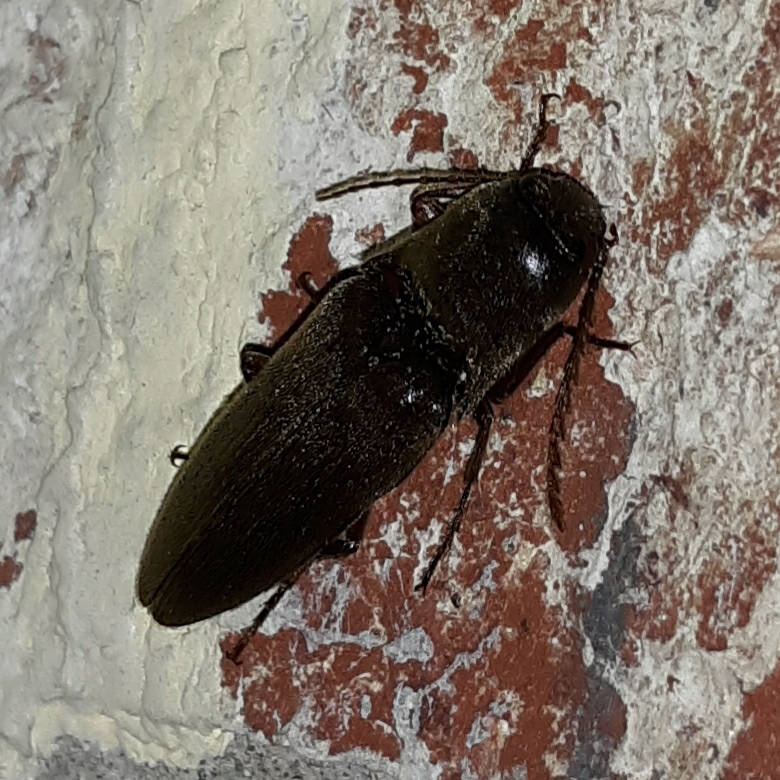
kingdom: Animalia
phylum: Arthropoda
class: Insecta
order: Coleoptera
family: Elateridae
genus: Orthostethus
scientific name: Orthostethus infuscatus
